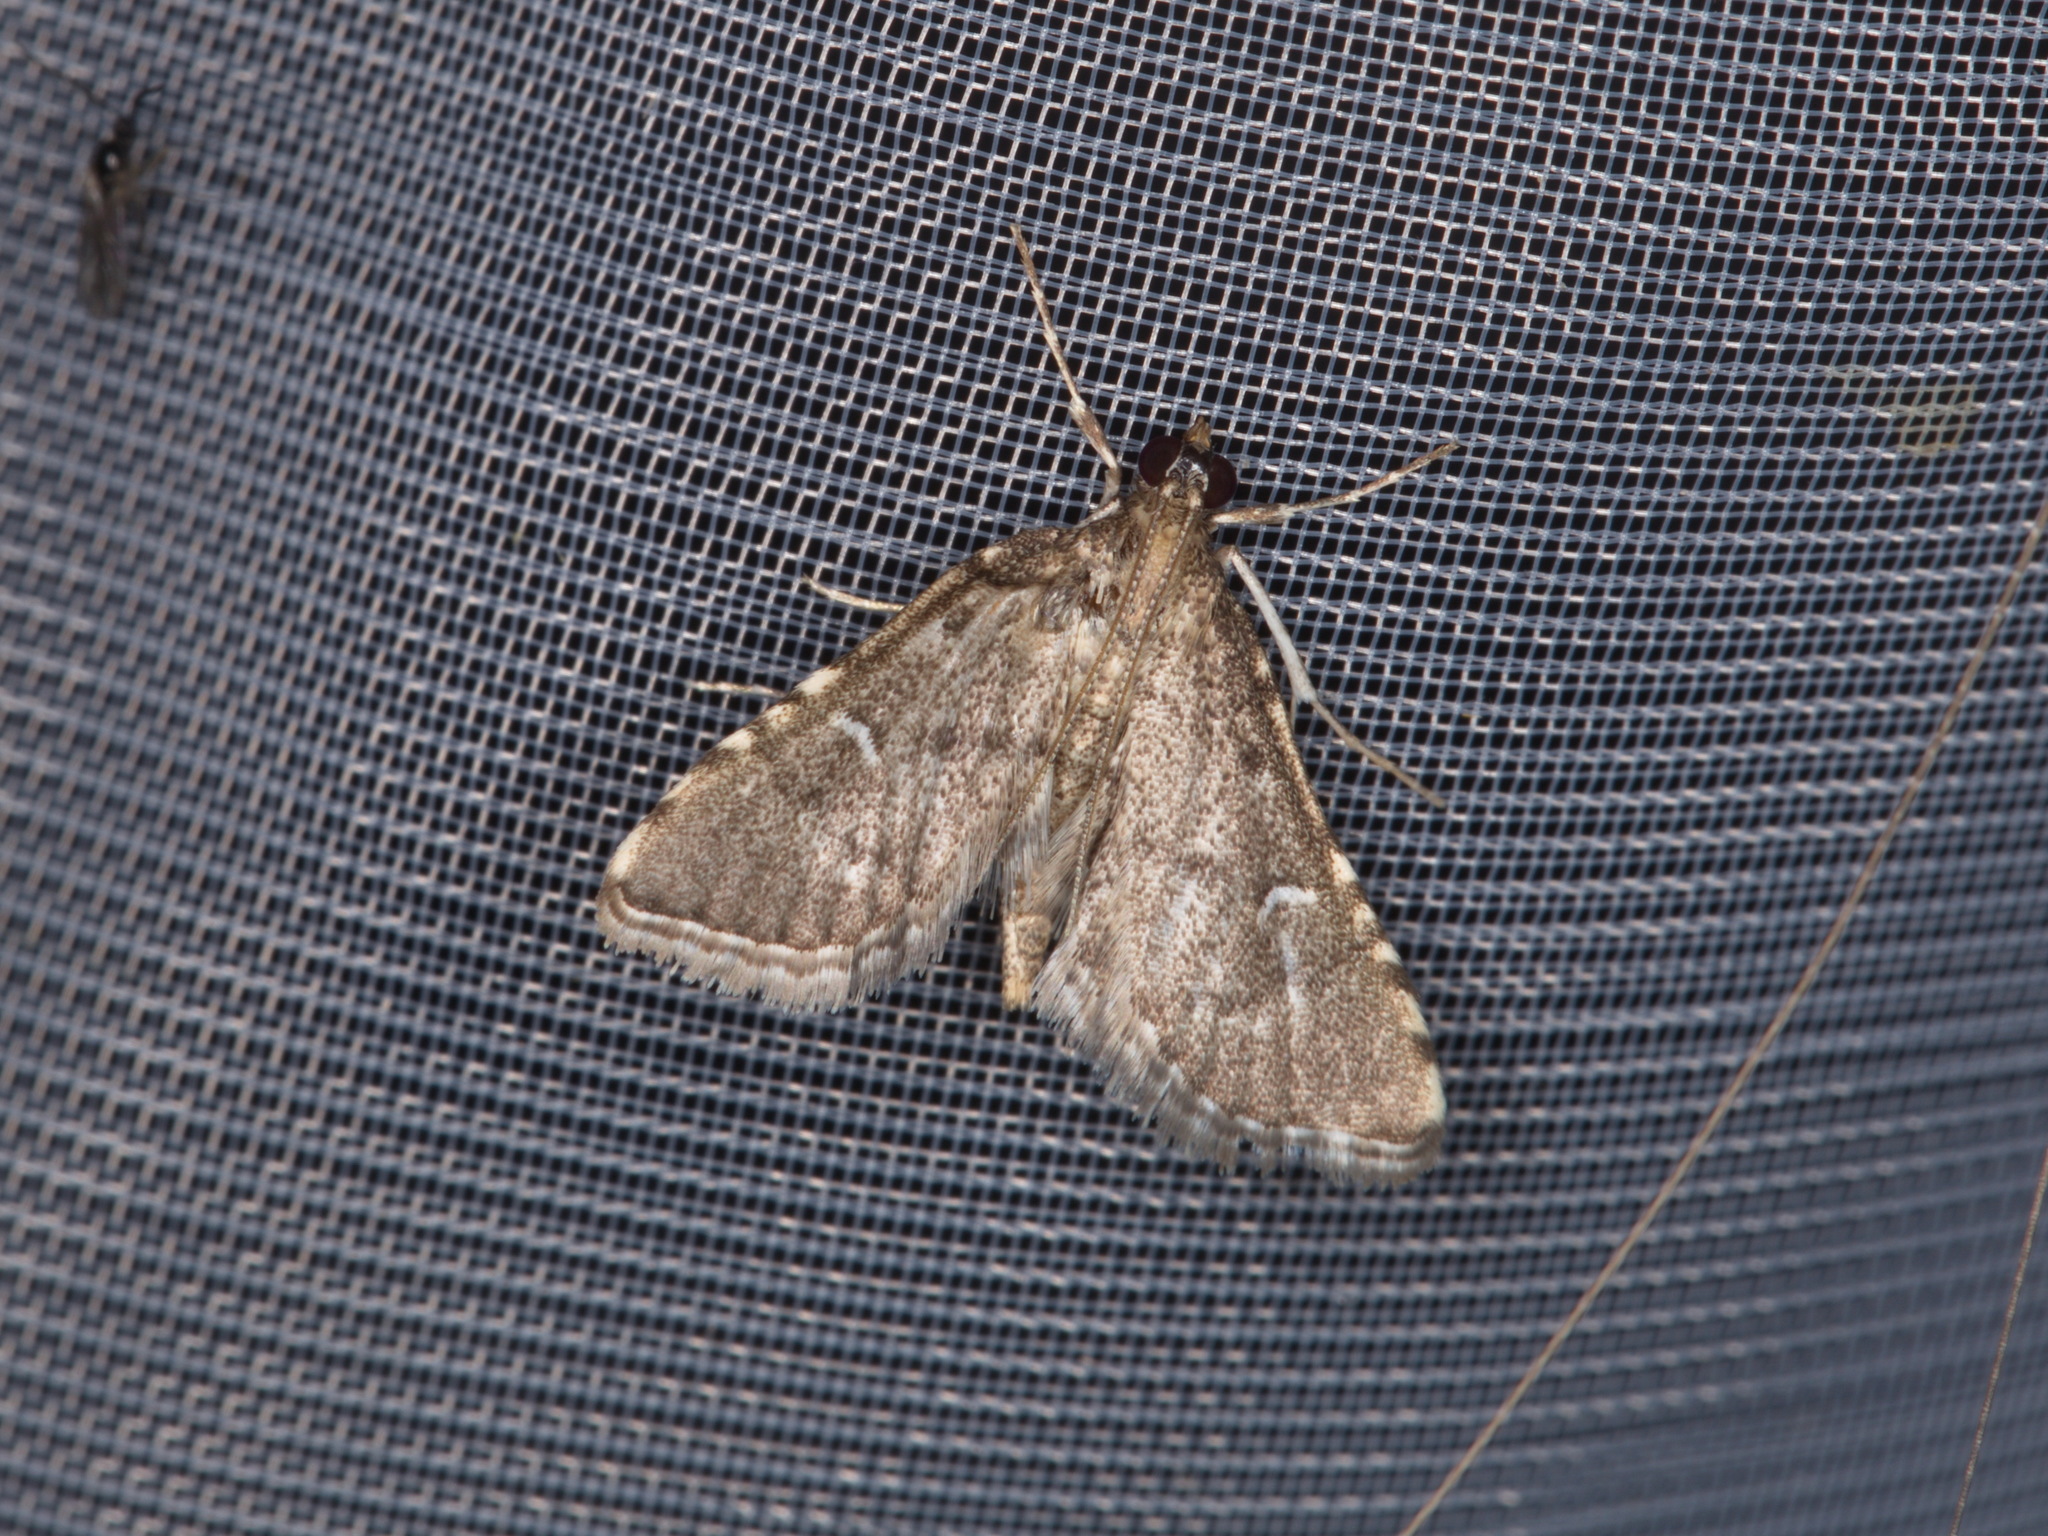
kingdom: Animalia
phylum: Arthropoda
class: Insecta
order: Lepidoptera
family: Crambidae
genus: Metasia
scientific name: Metasia capnochroa
